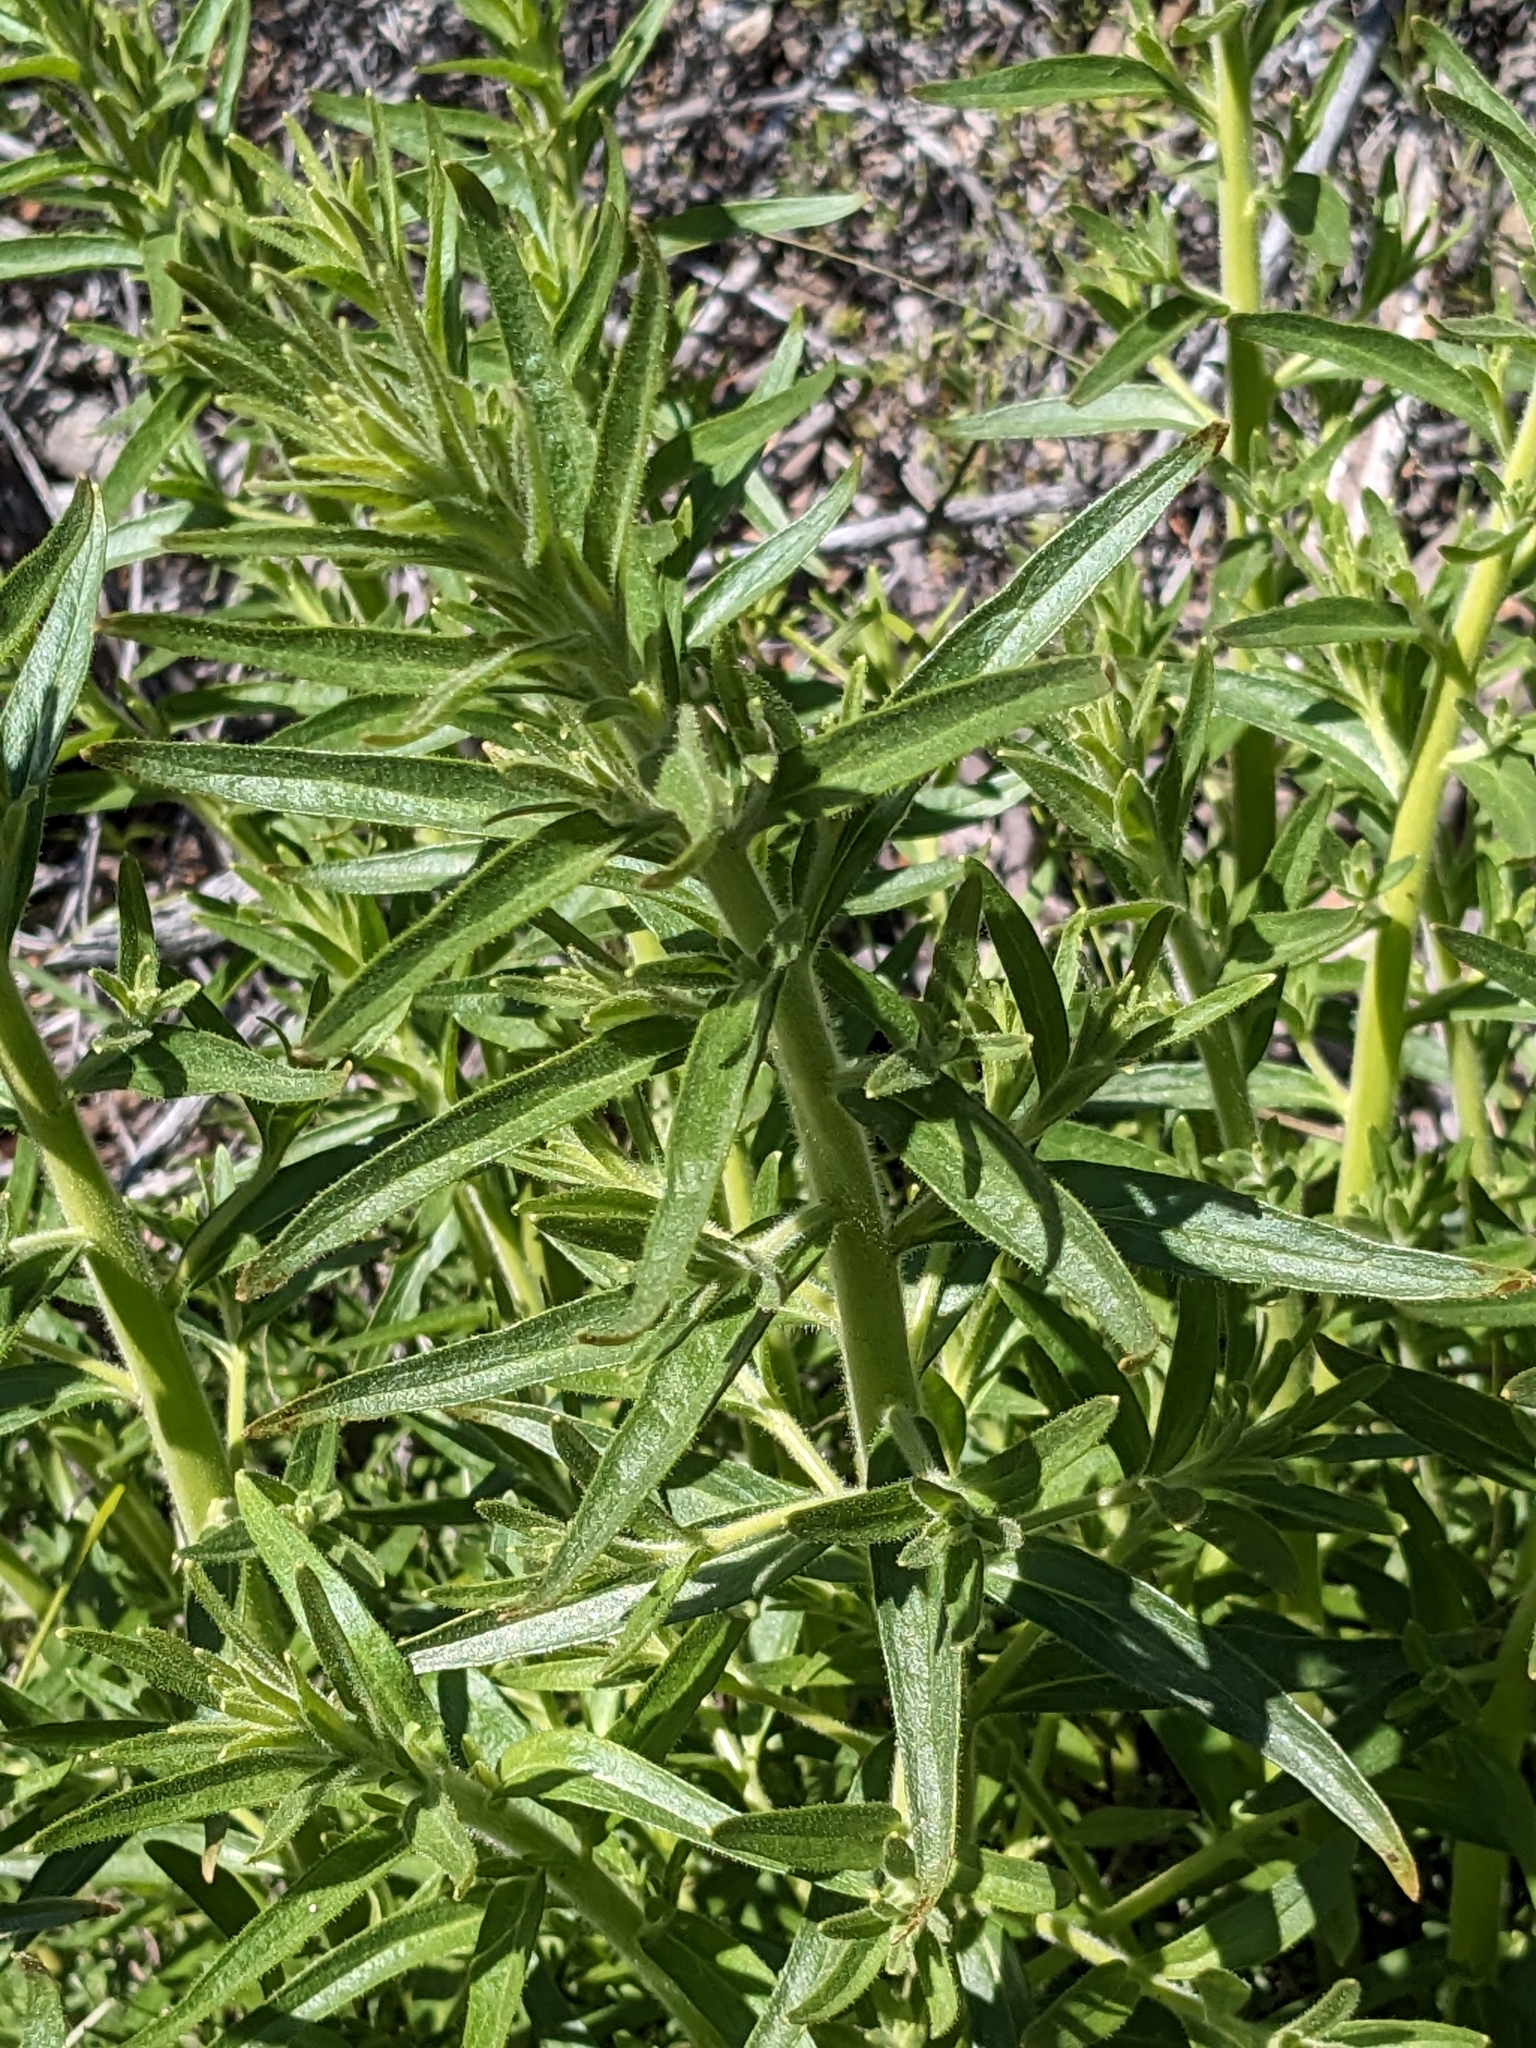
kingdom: Plantae
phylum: Tracheophyta
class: Magnoliopsida
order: Lamiales
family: Plantaginaceae
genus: Sairocarpus
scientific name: Sairocarpus multiflorus
